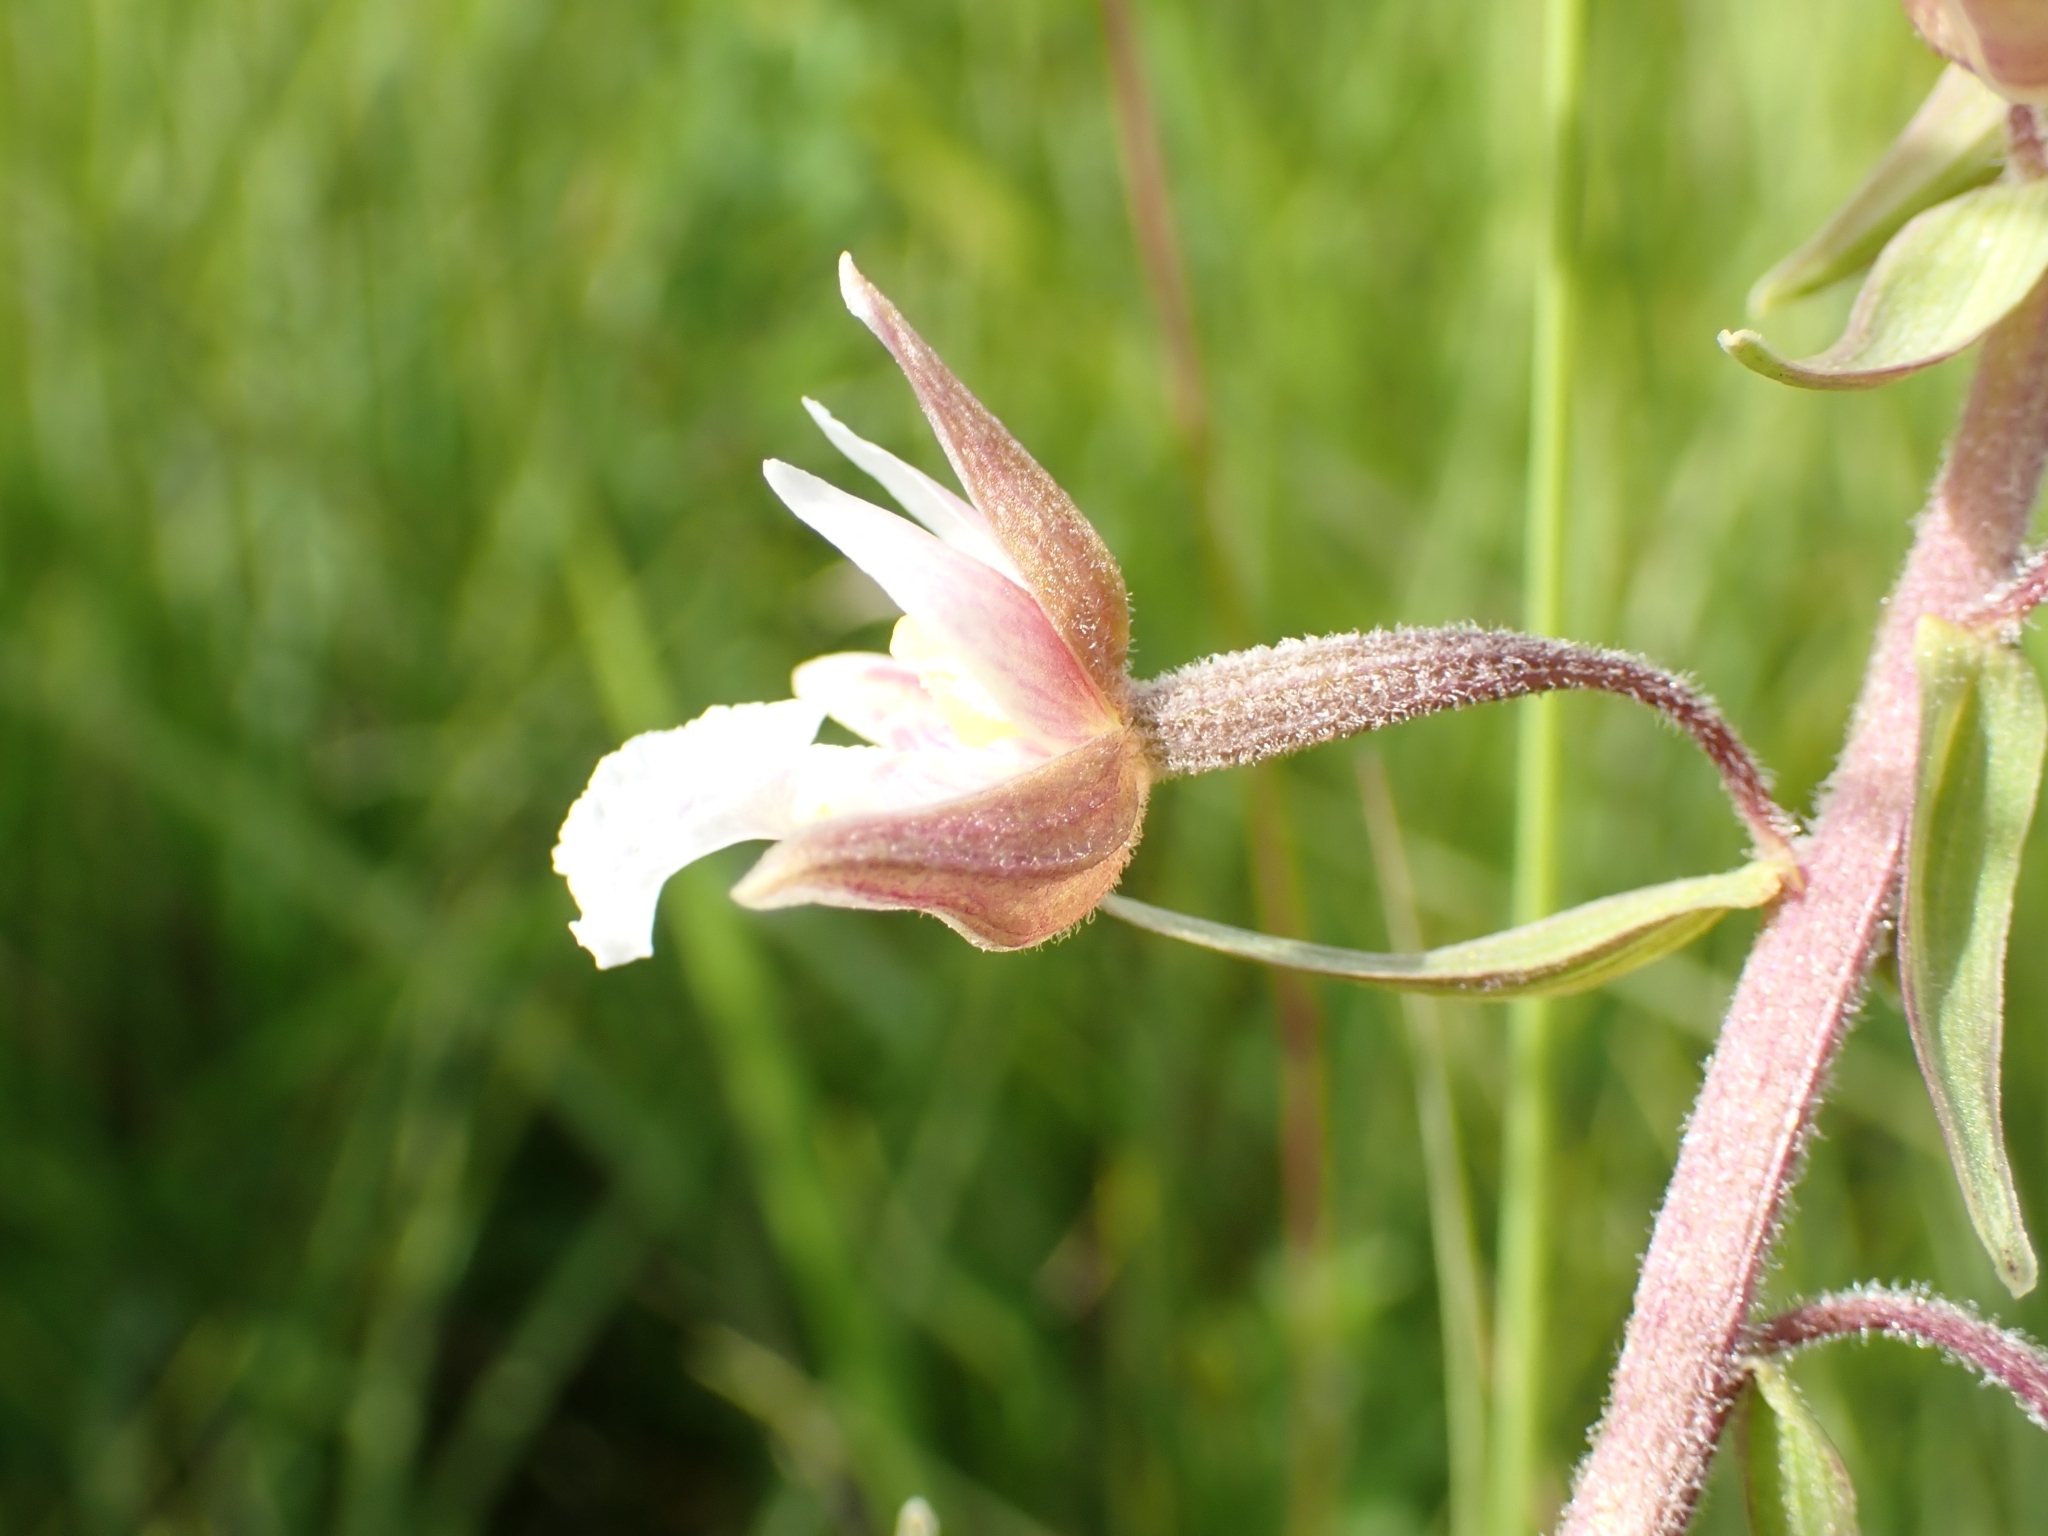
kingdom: Plantae
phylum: Tracheophyta
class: Liliopsida
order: Asparagales
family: Orchidaceae
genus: Epipactis
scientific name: Epipactis palustris
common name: Marsh helleborine
